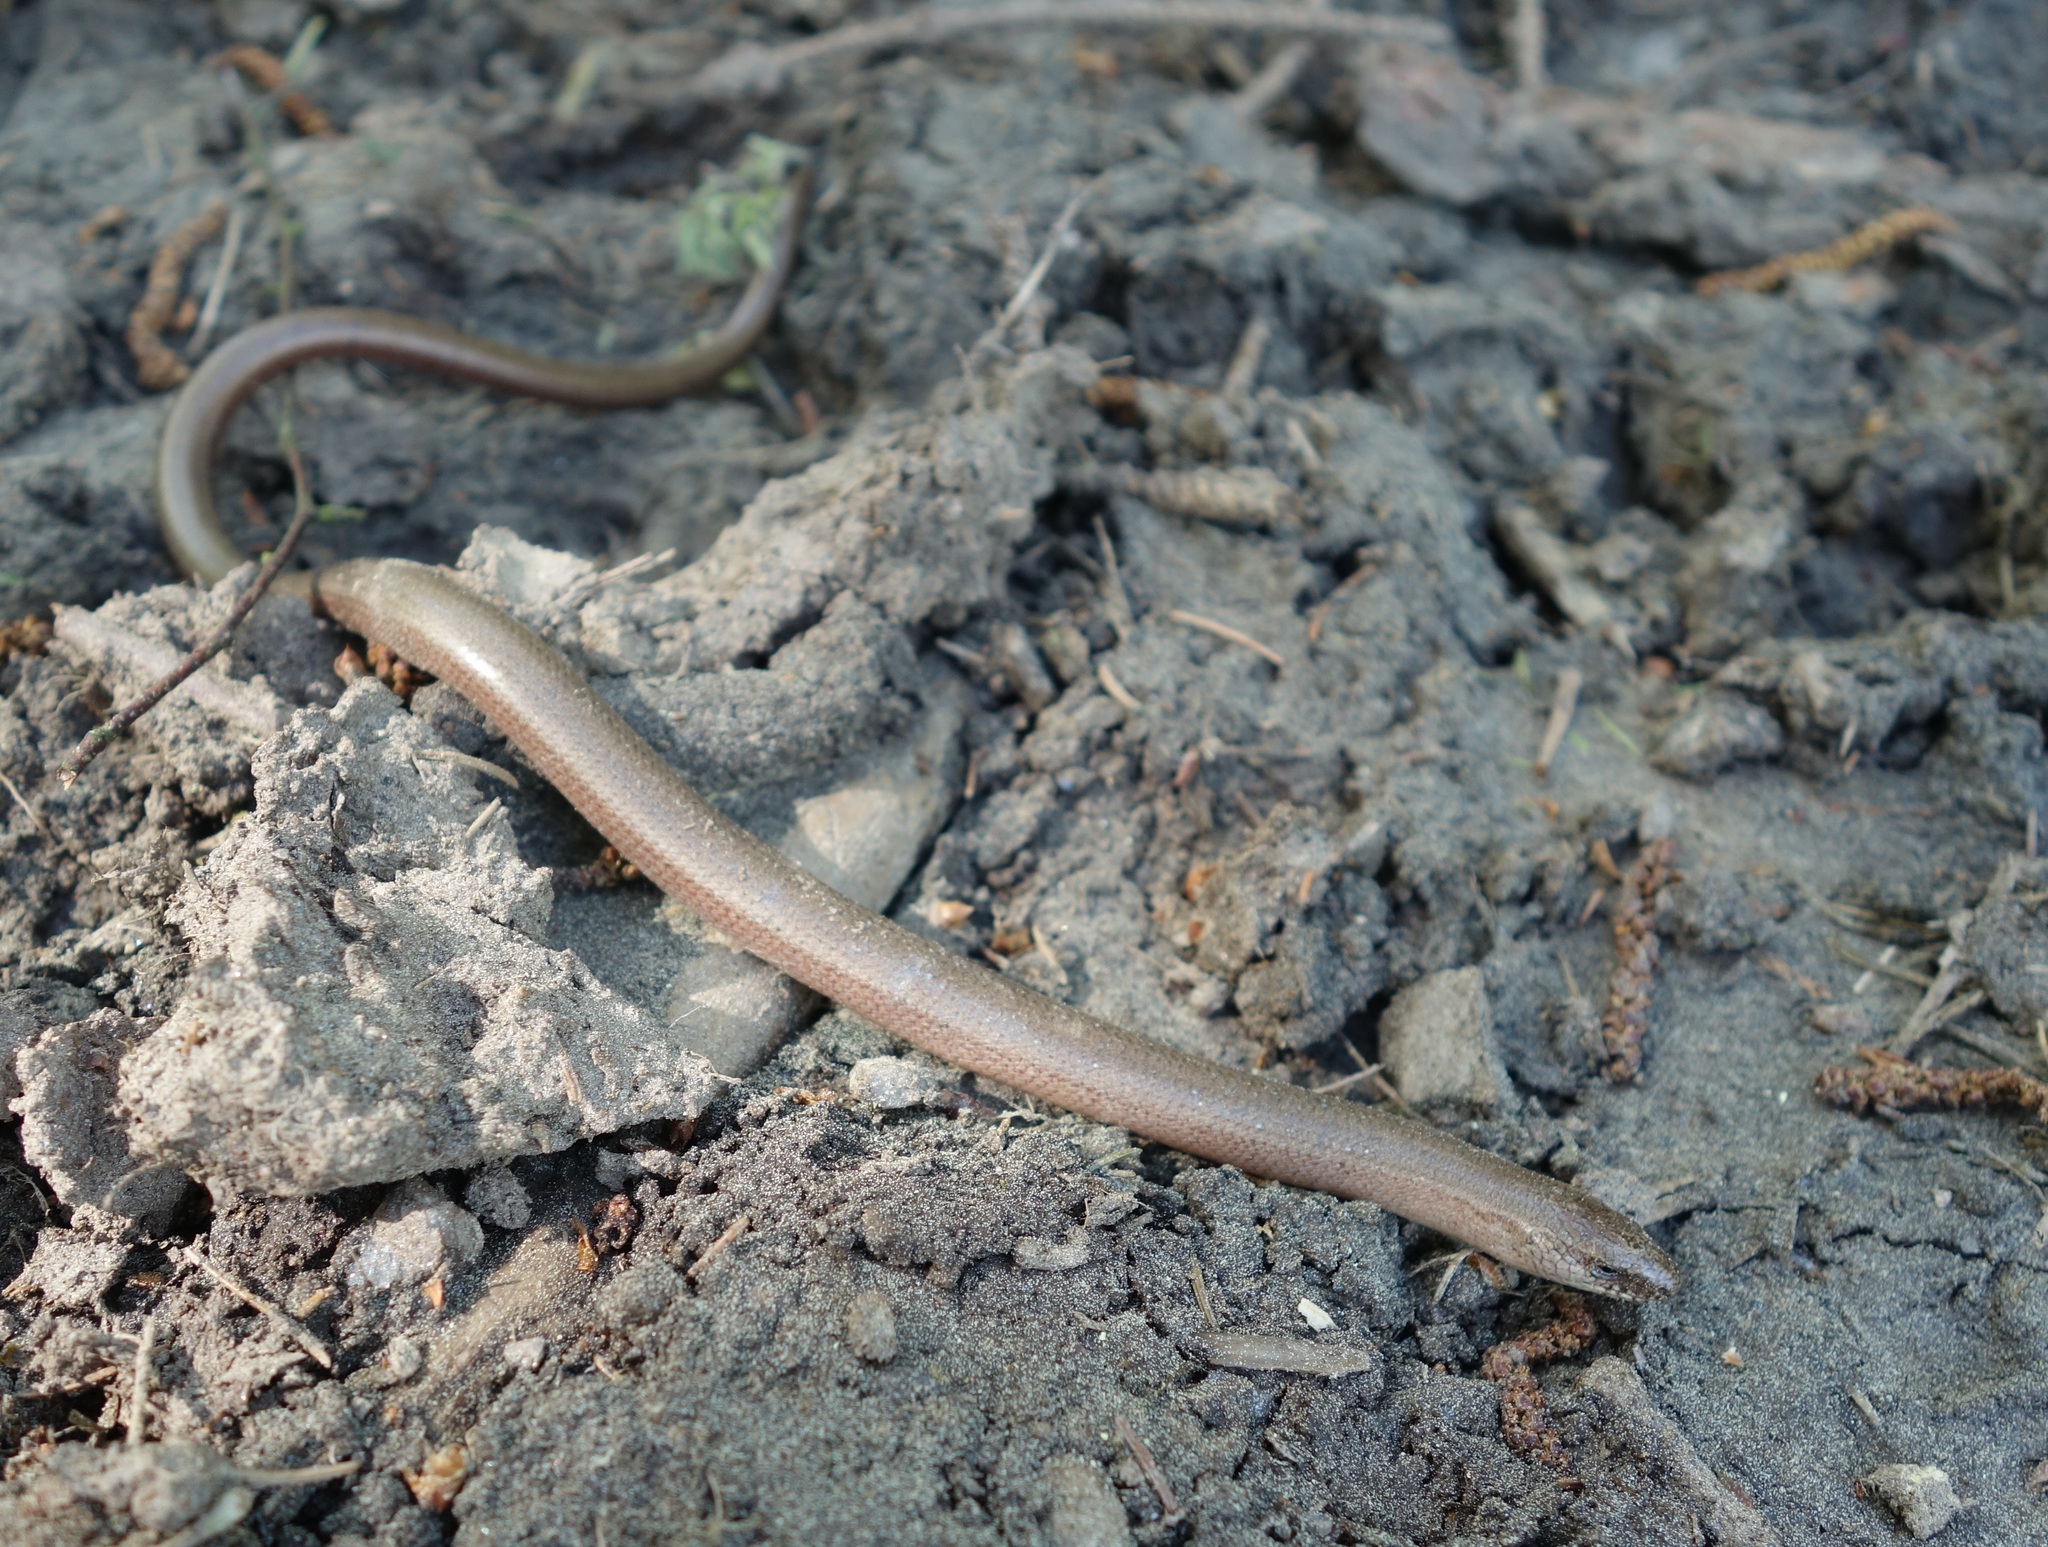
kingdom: Animalia
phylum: Chordata
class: Squamata
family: Anguidae
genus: Anguis
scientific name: Anguis fragilis
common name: Slow worm
